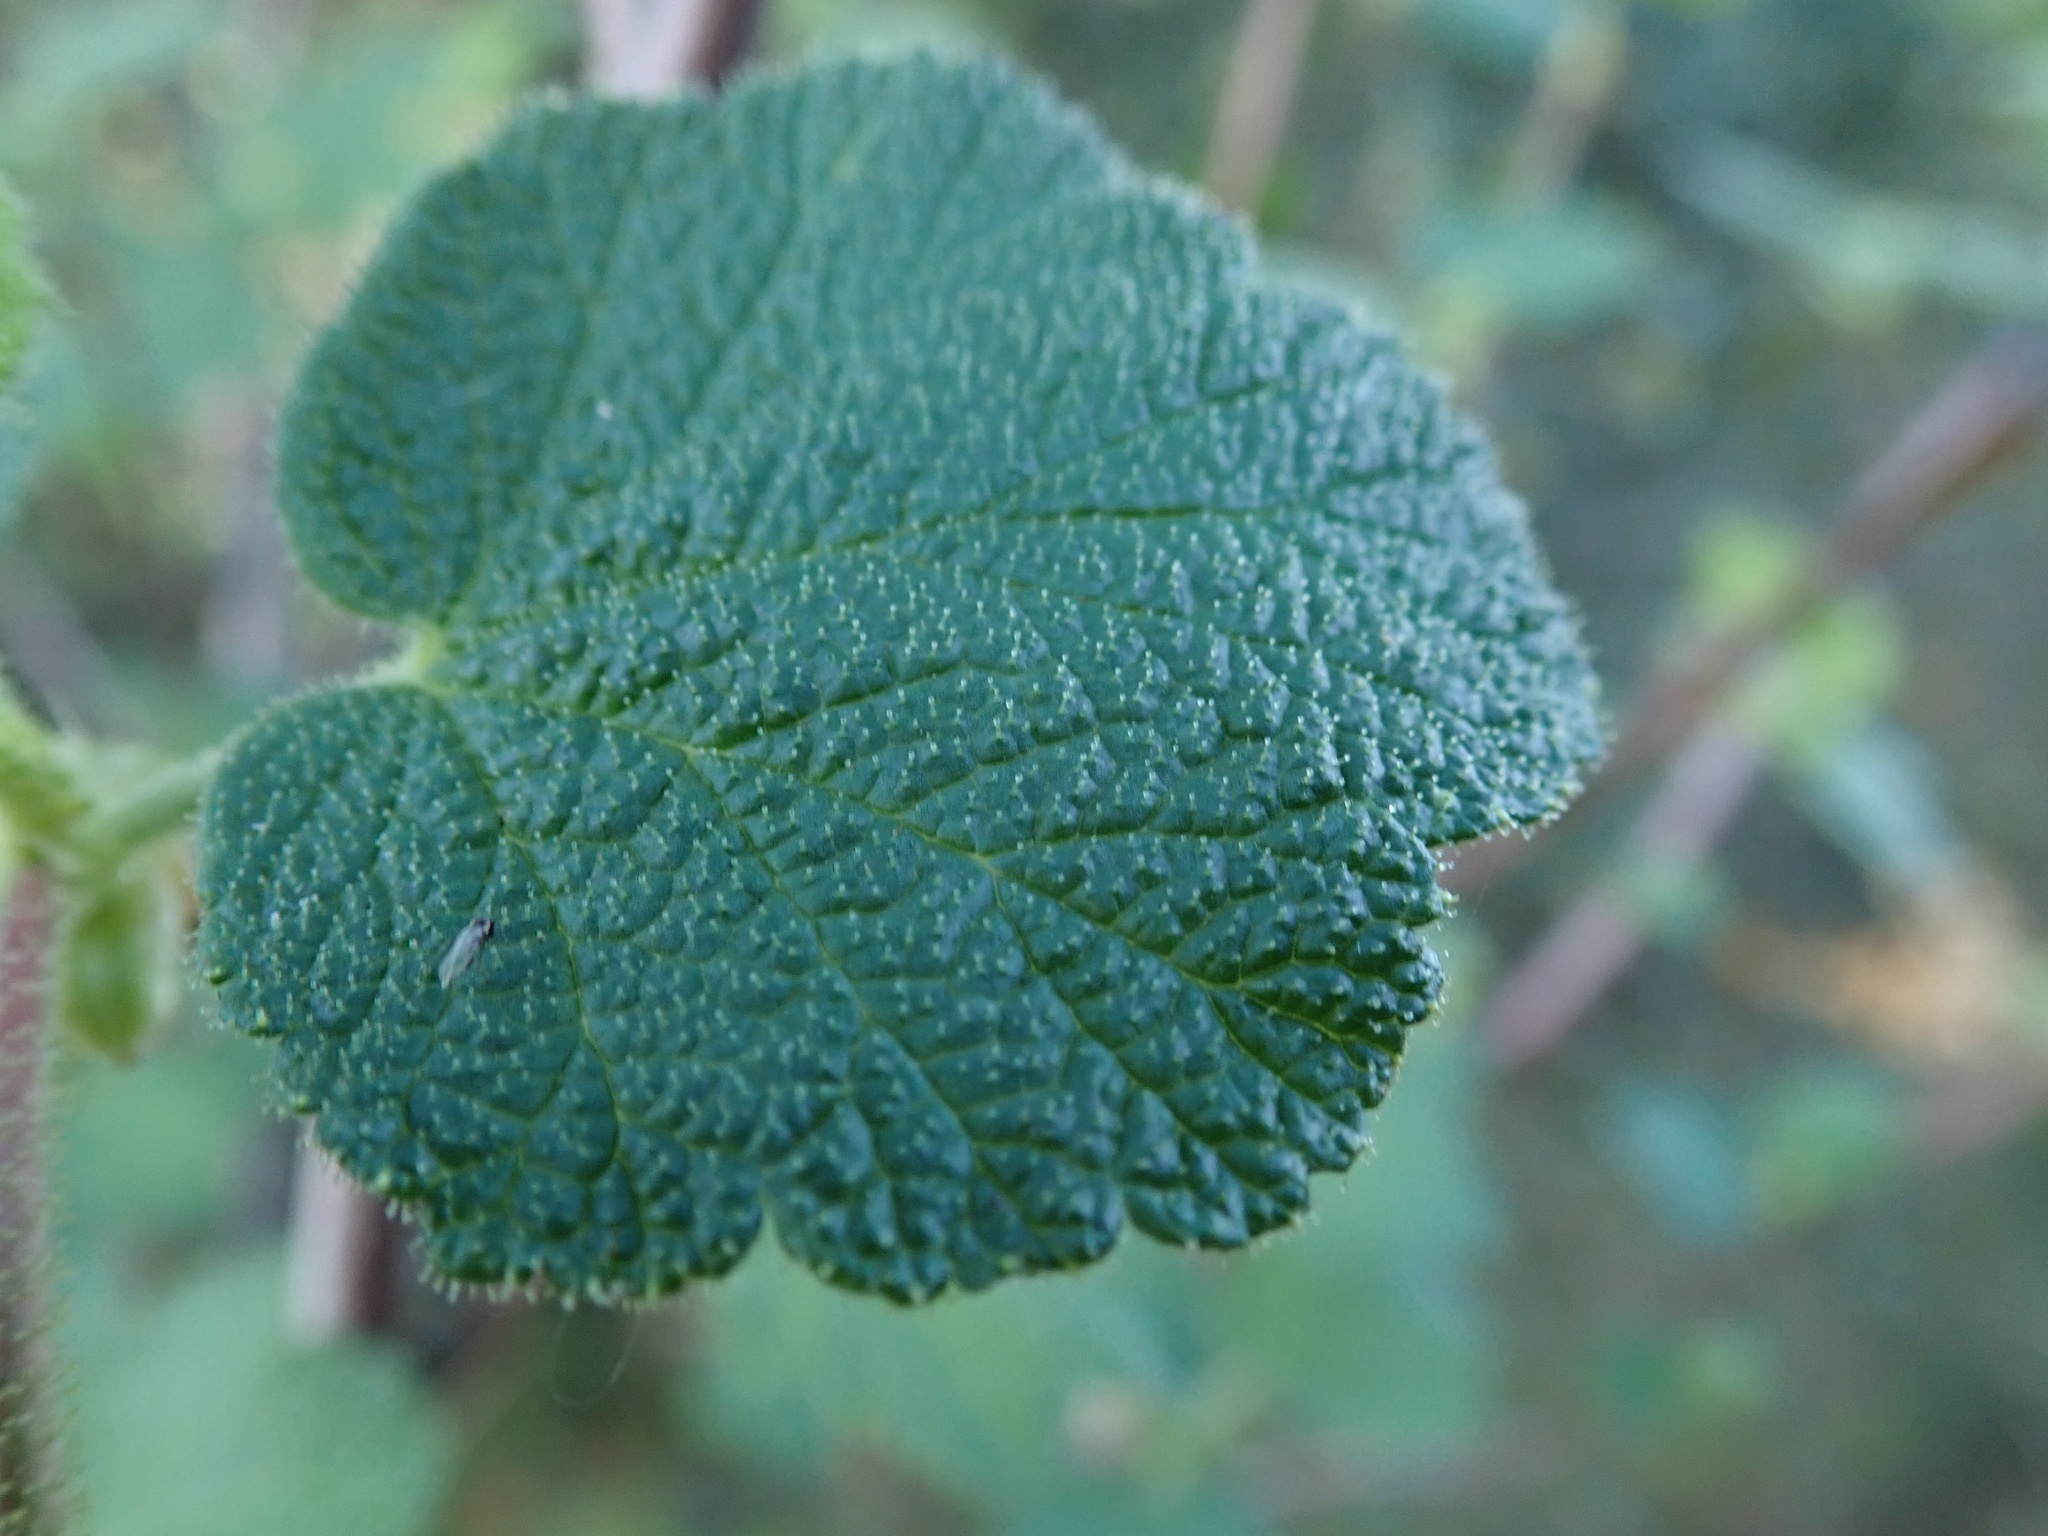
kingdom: Plantae
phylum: Tracheophyta
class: Magnoliopsida
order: Saxifragales
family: Grossulariaceae
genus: Ribes
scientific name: Ribes malvaceum
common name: Chaparral currant
